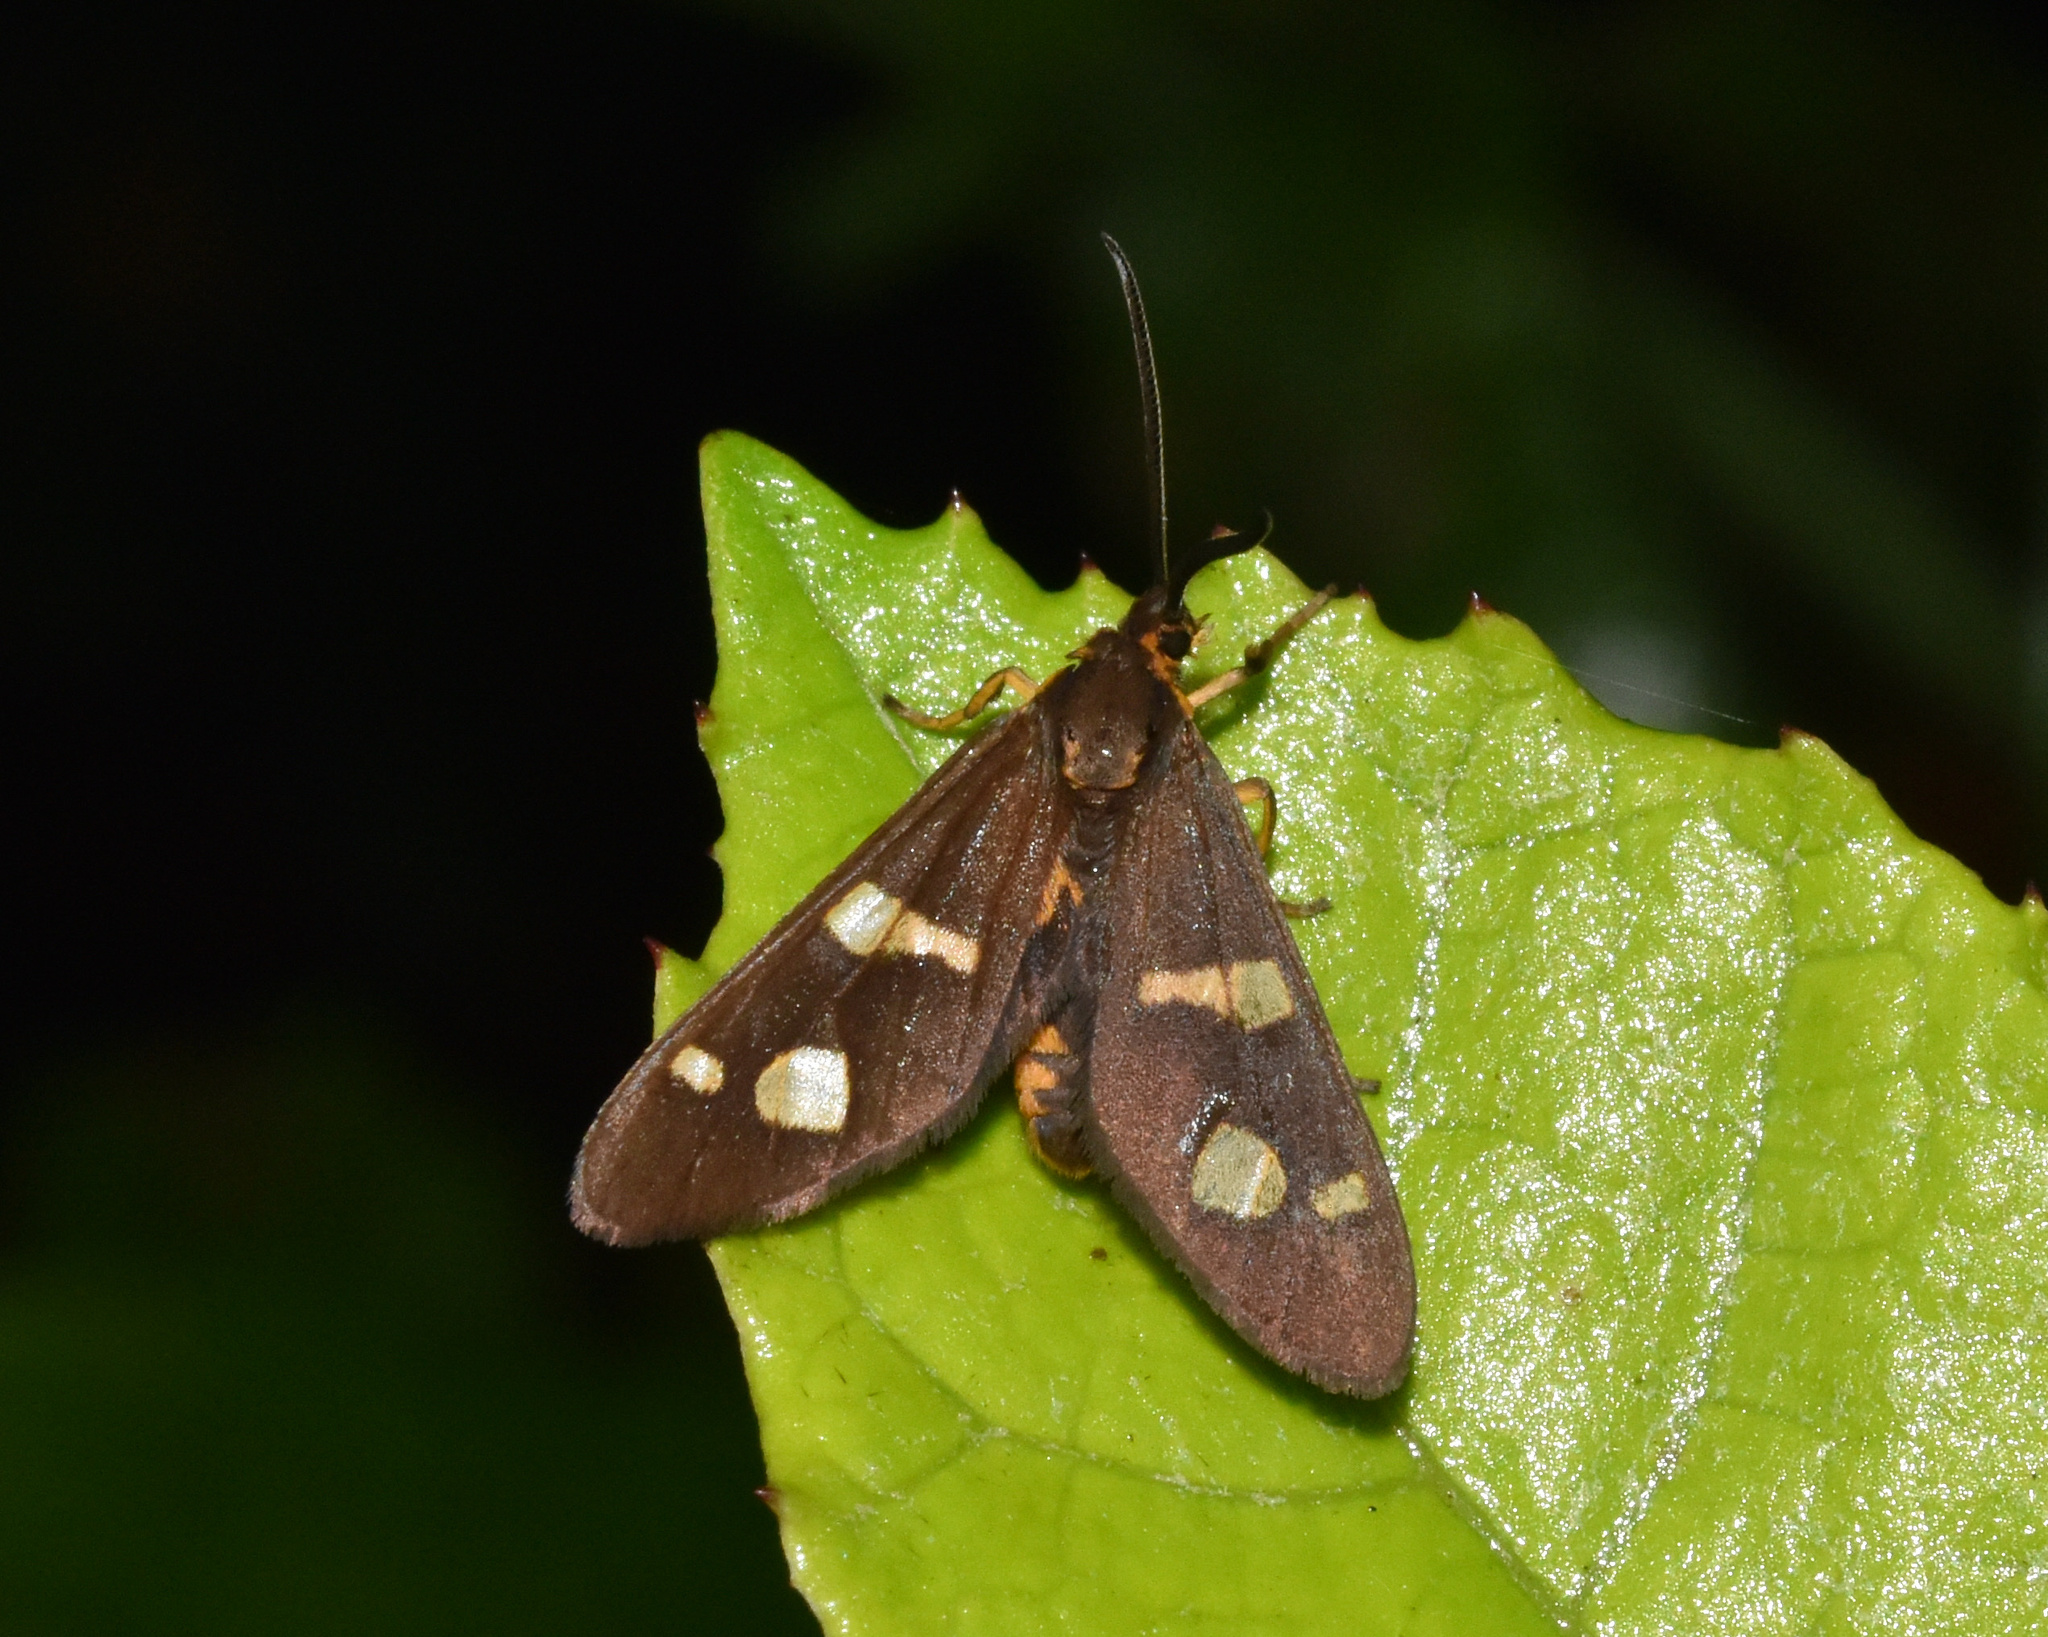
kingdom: Animalia
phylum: Arthropoda
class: Insecta
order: Lepidoptera
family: Erebidae
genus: Pseudonaclia
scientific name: Pseudonaclia puella
